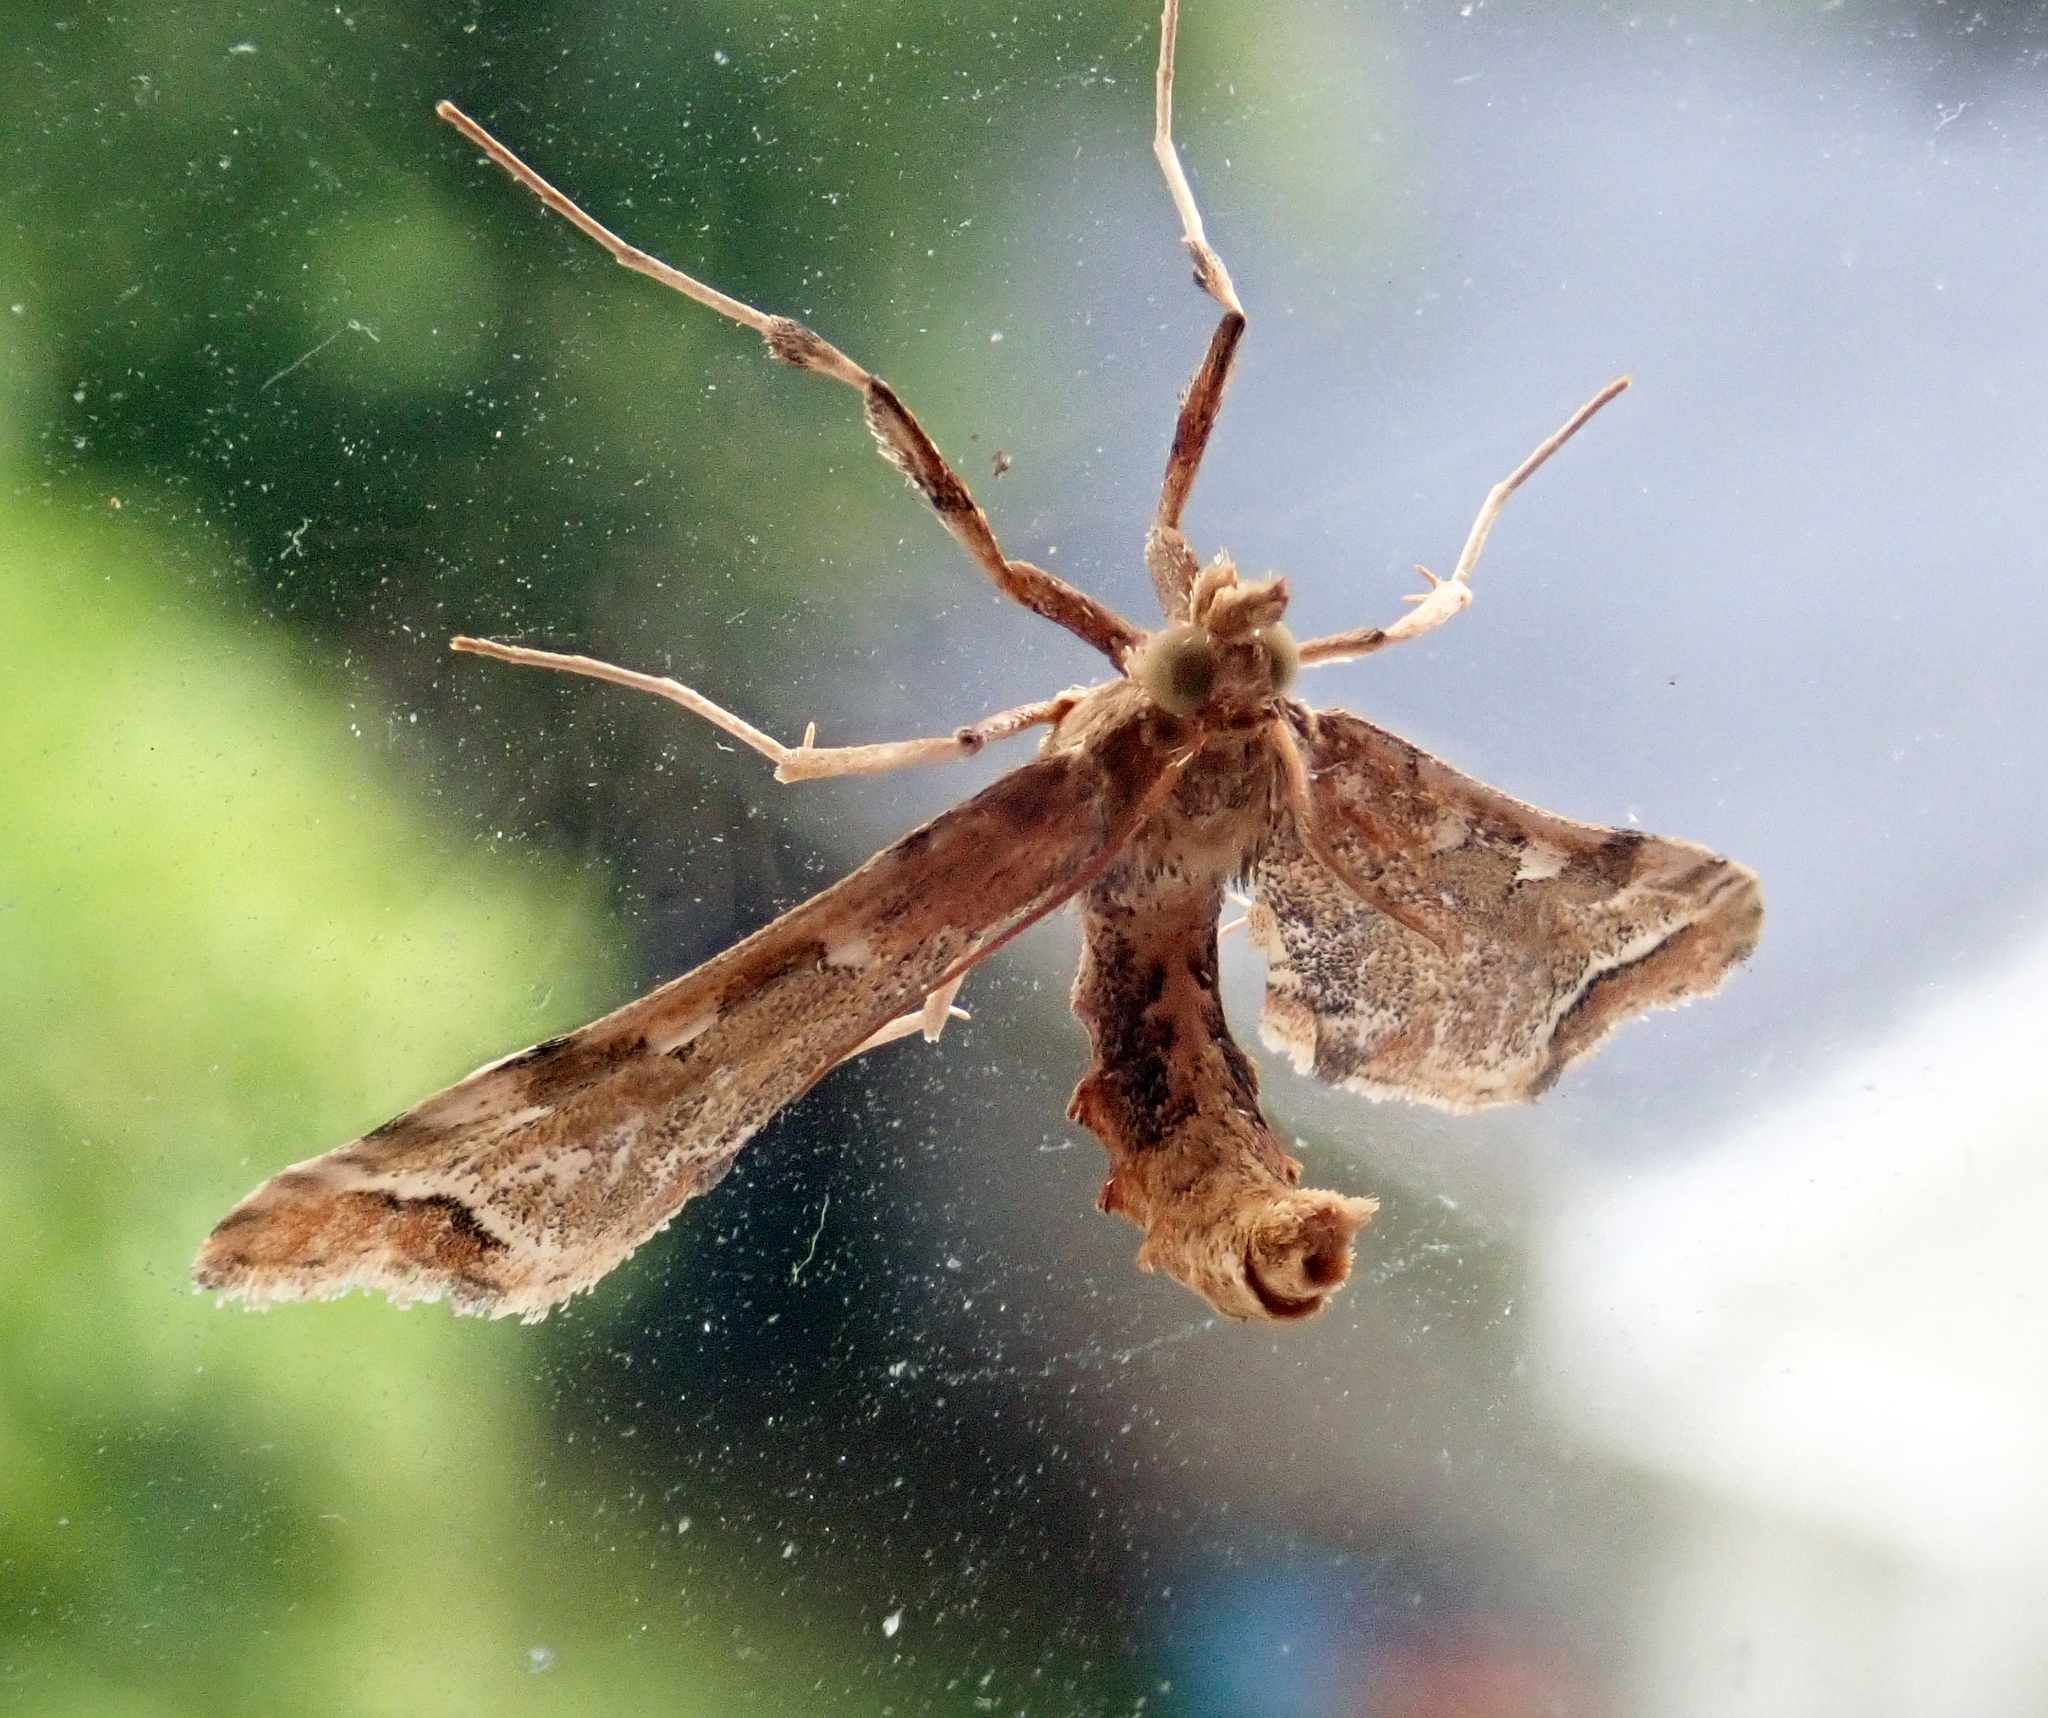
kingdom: Animalia
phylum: Arthropoda
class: Insecta
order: Lepidoptera
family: Crambidae
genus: Sceliodes
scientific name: Sceliodes cordalis
